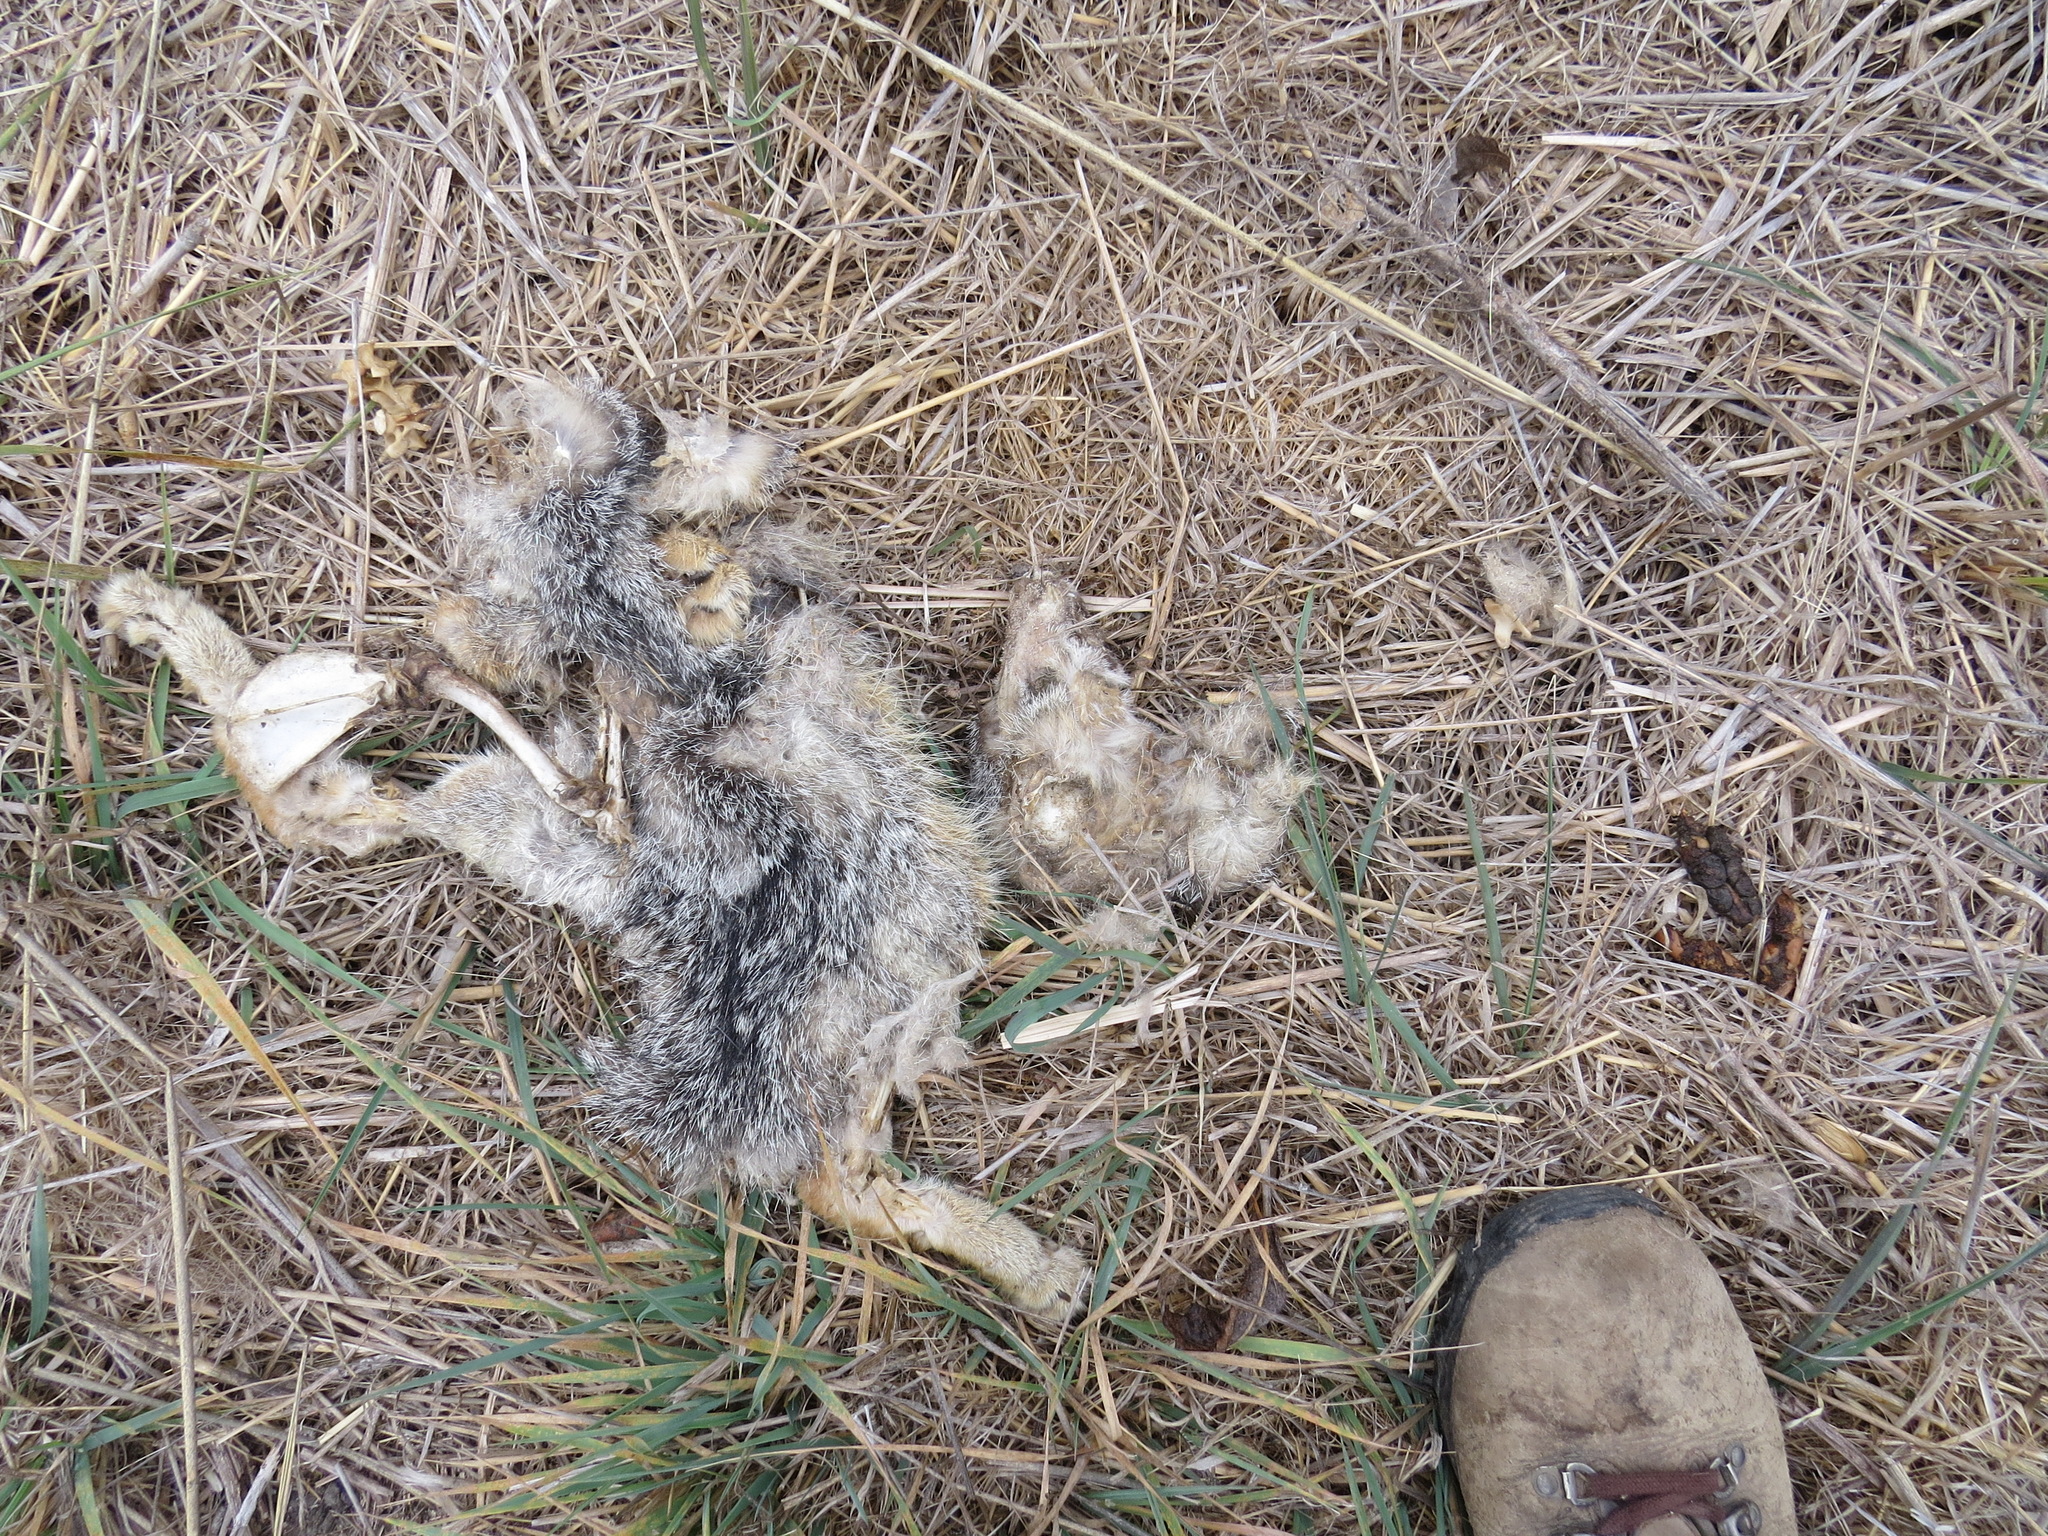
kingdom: Animalia
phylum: Chordata
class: Mammalia
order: Carnivora
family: Canidae
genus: Urocyon
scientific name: Urocyon cinereoargenteus
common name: Gray fox
